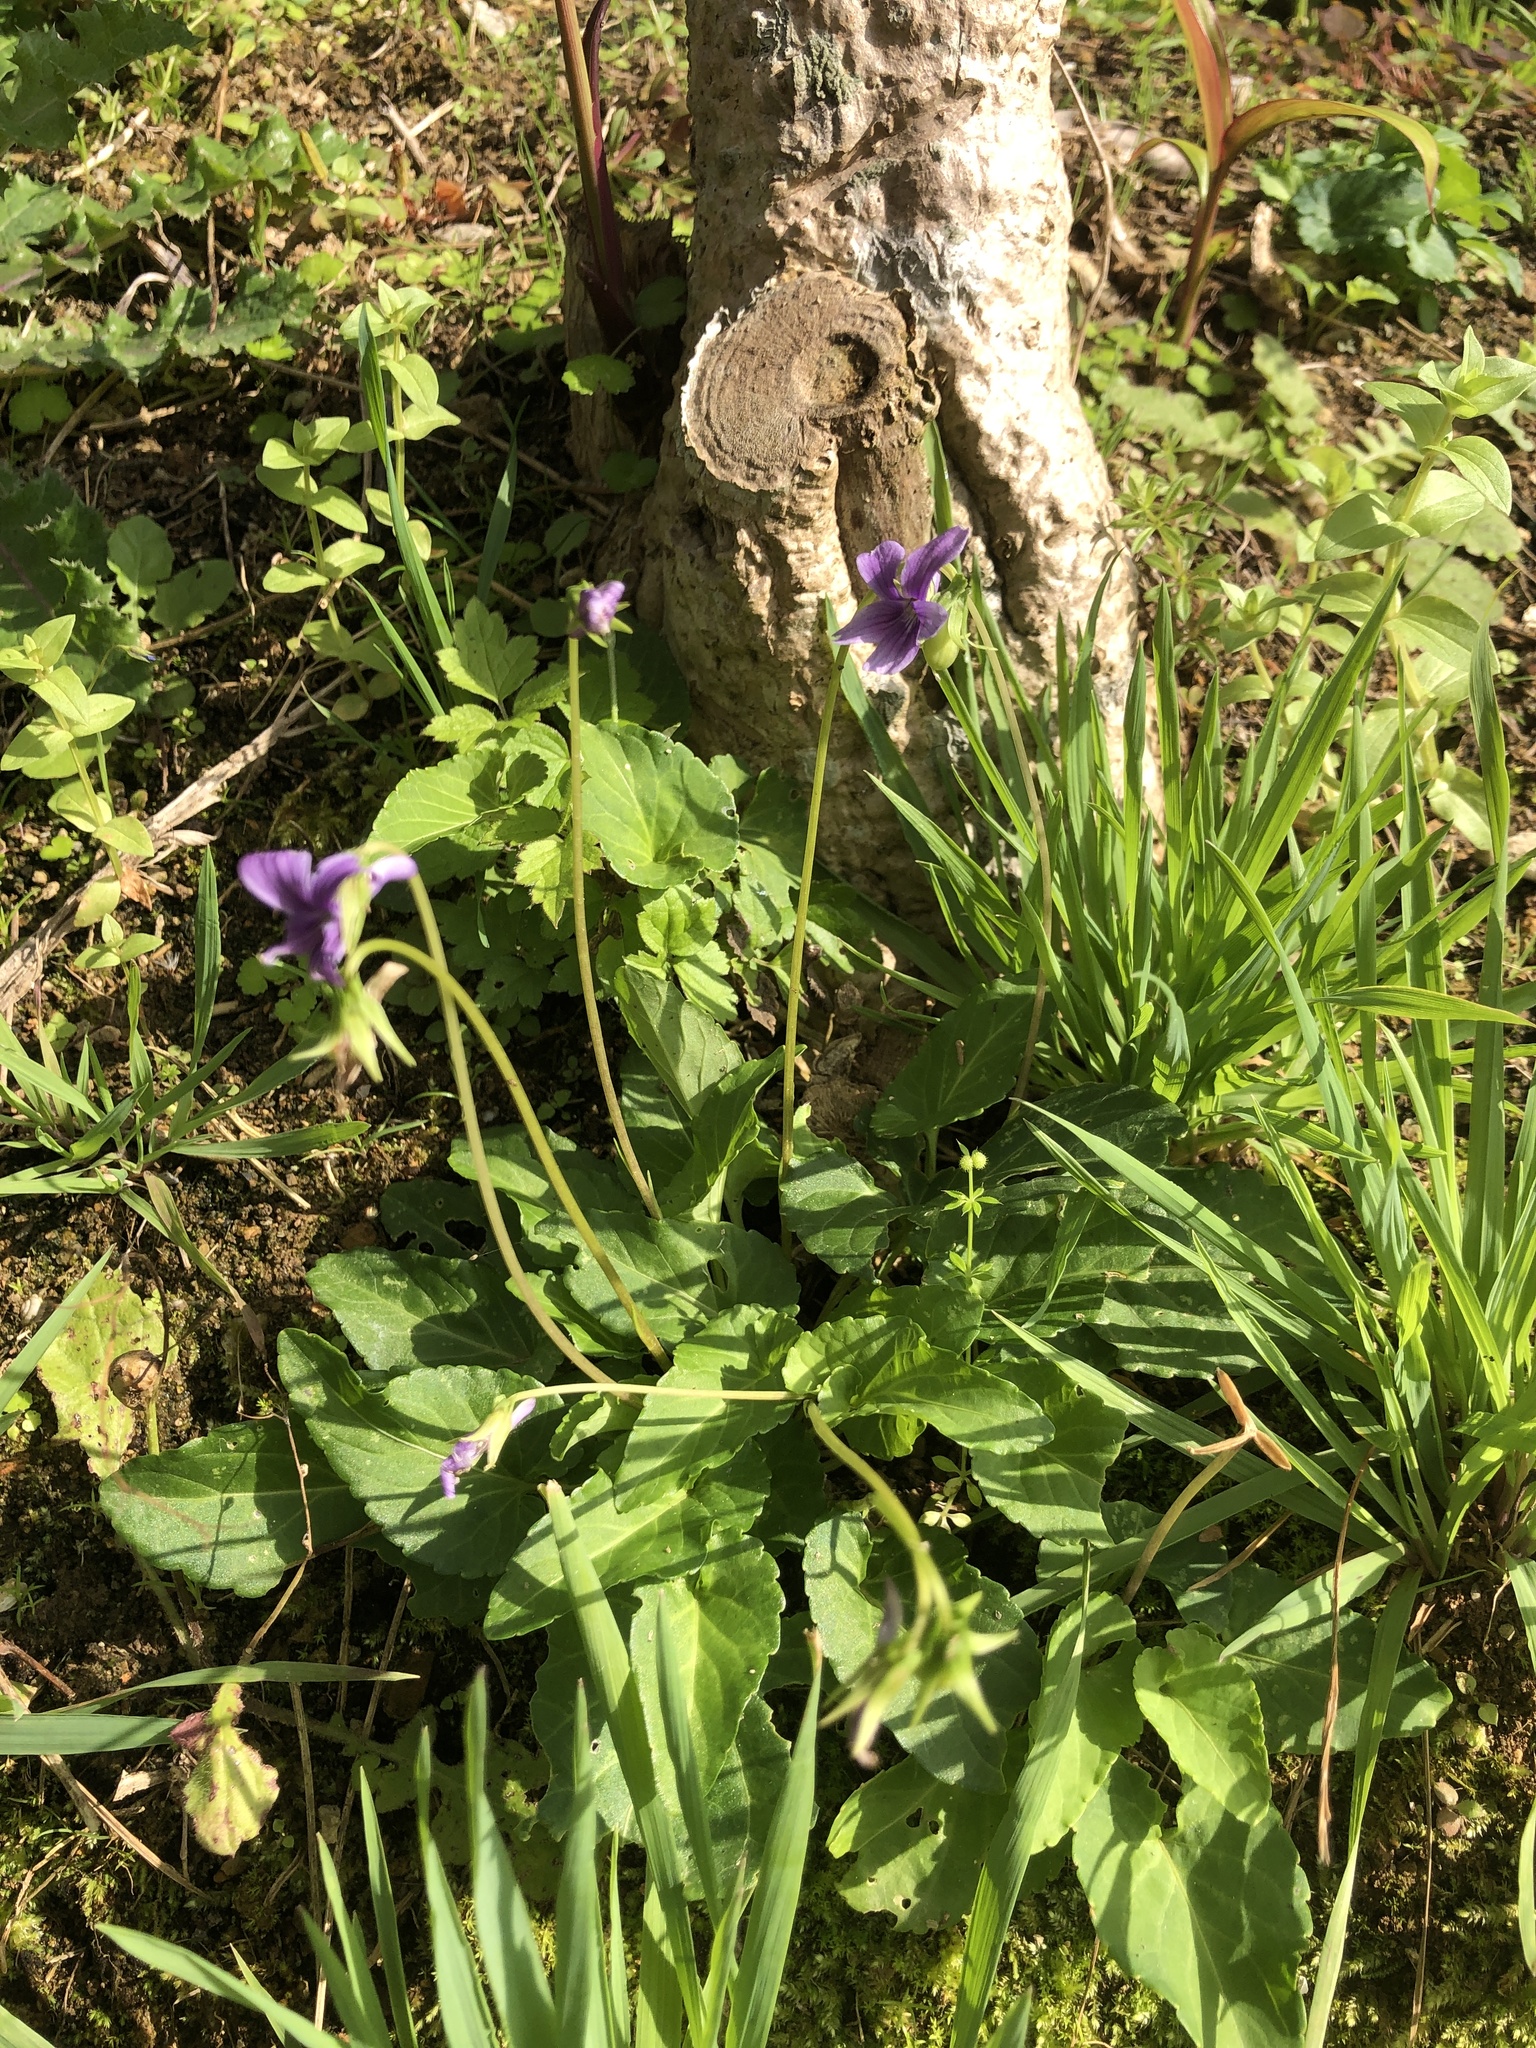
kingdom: Plantae
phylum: Tracheophyta
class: Magnoliopsida
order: Malpighiales
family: Violaceae
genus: Viola
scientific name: Viola philippica
